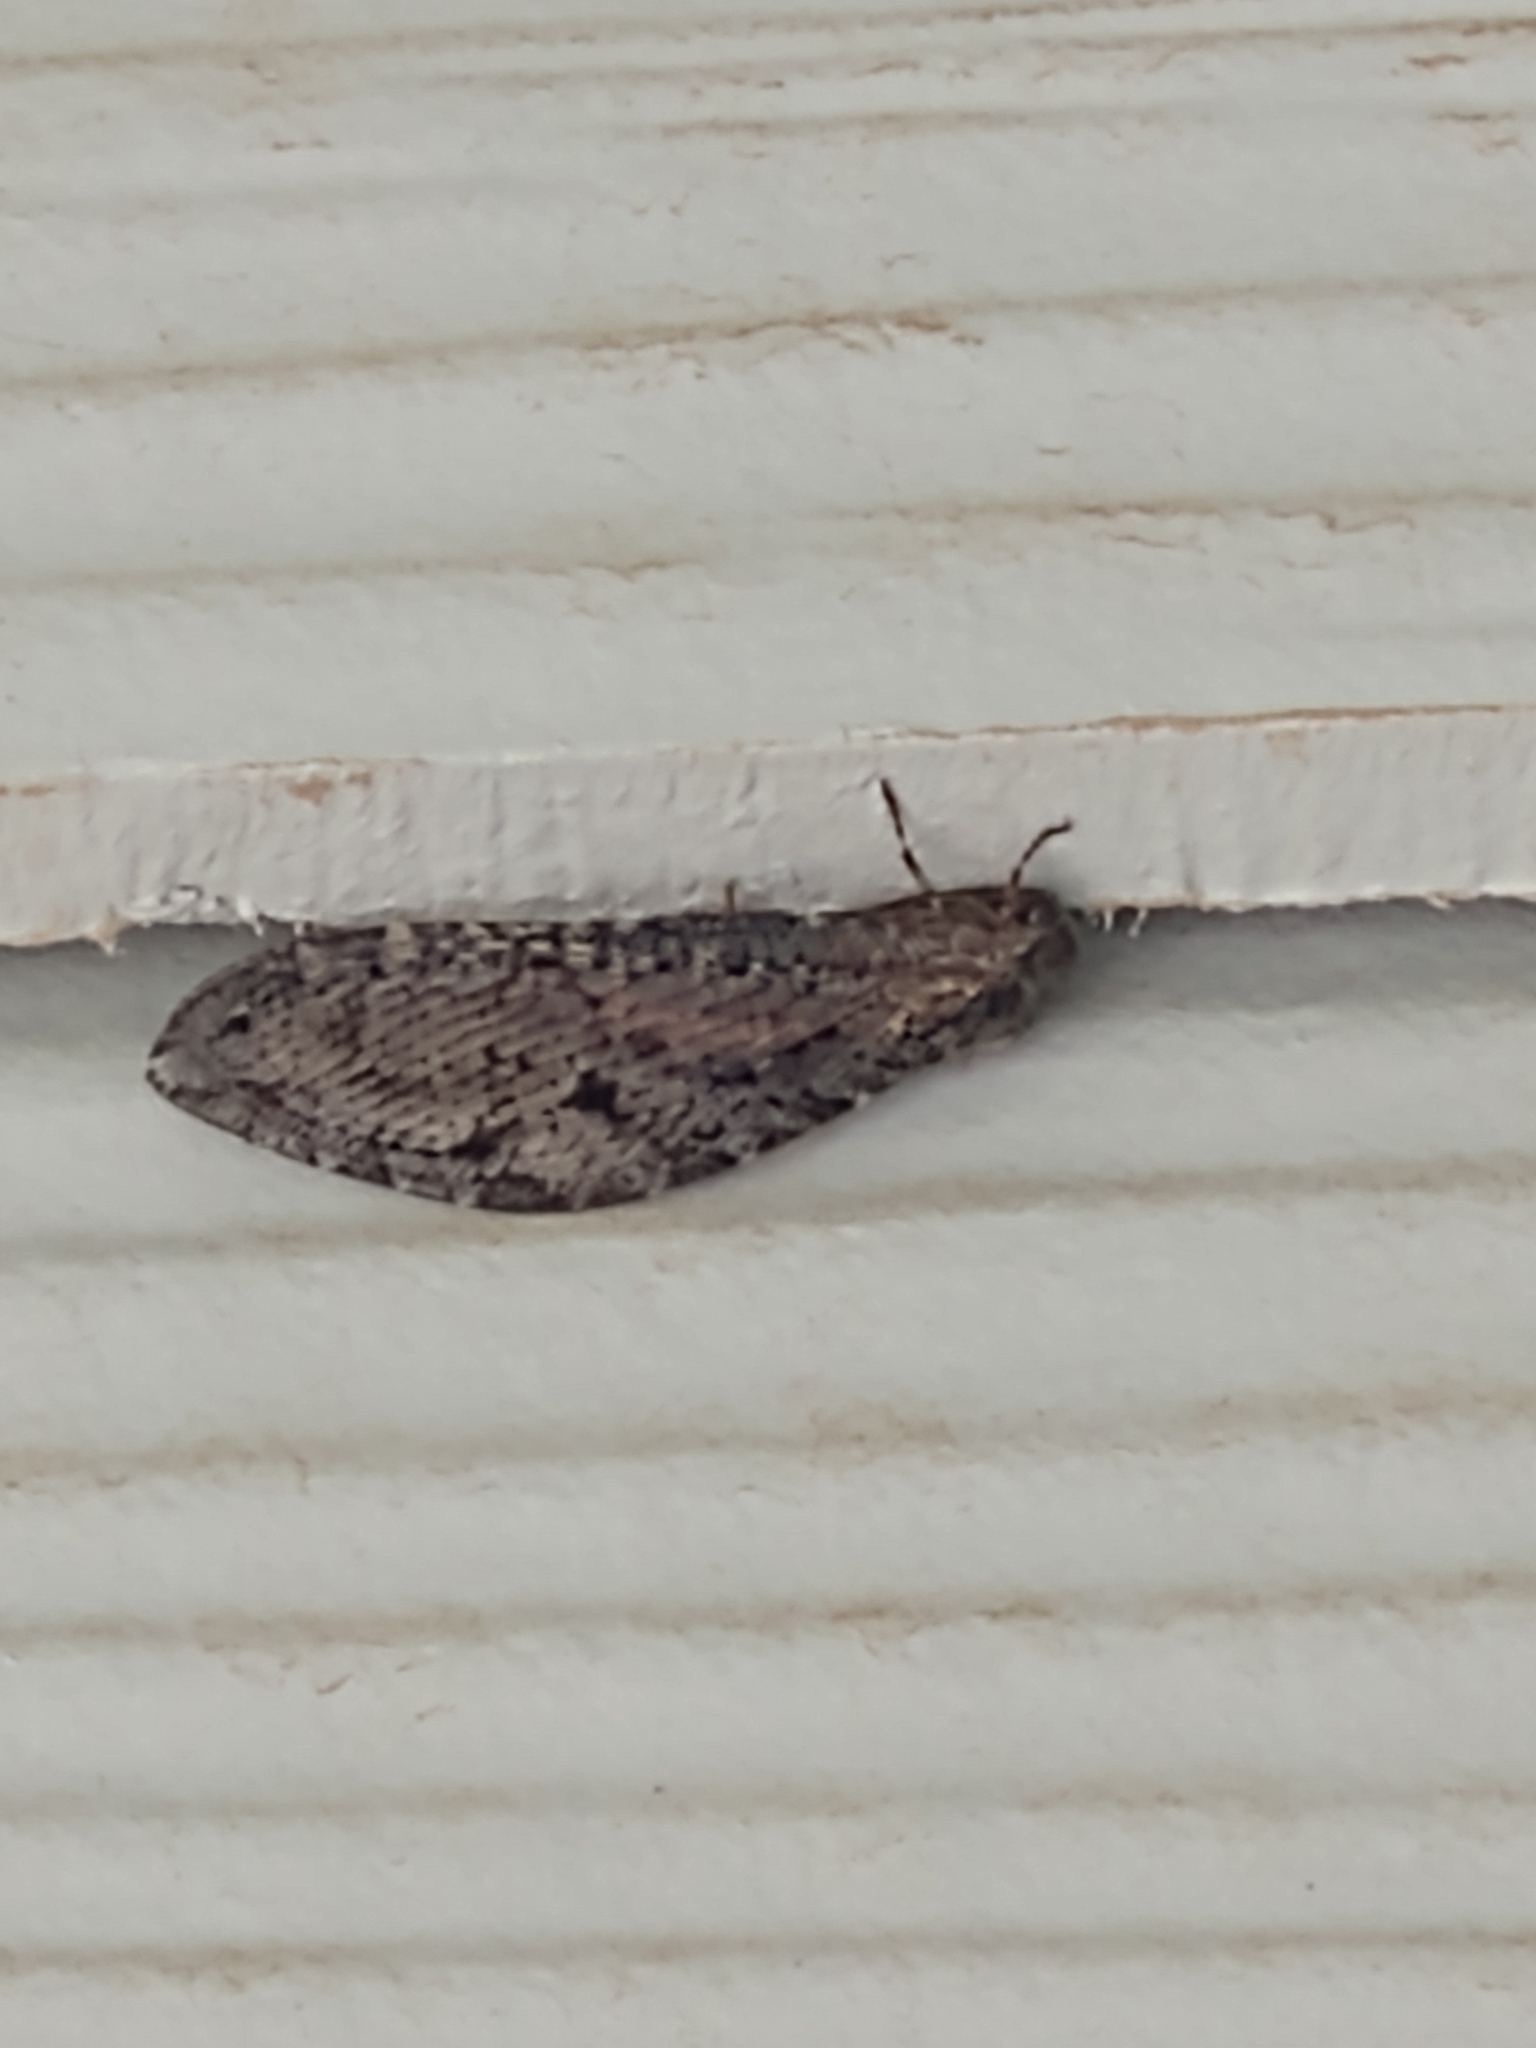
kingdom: Animalia
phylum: Arthropoda
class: Insecta
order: Neuroptera
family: Ithonidae
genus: Polystoechotes
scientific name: Polystoechotes punctata
